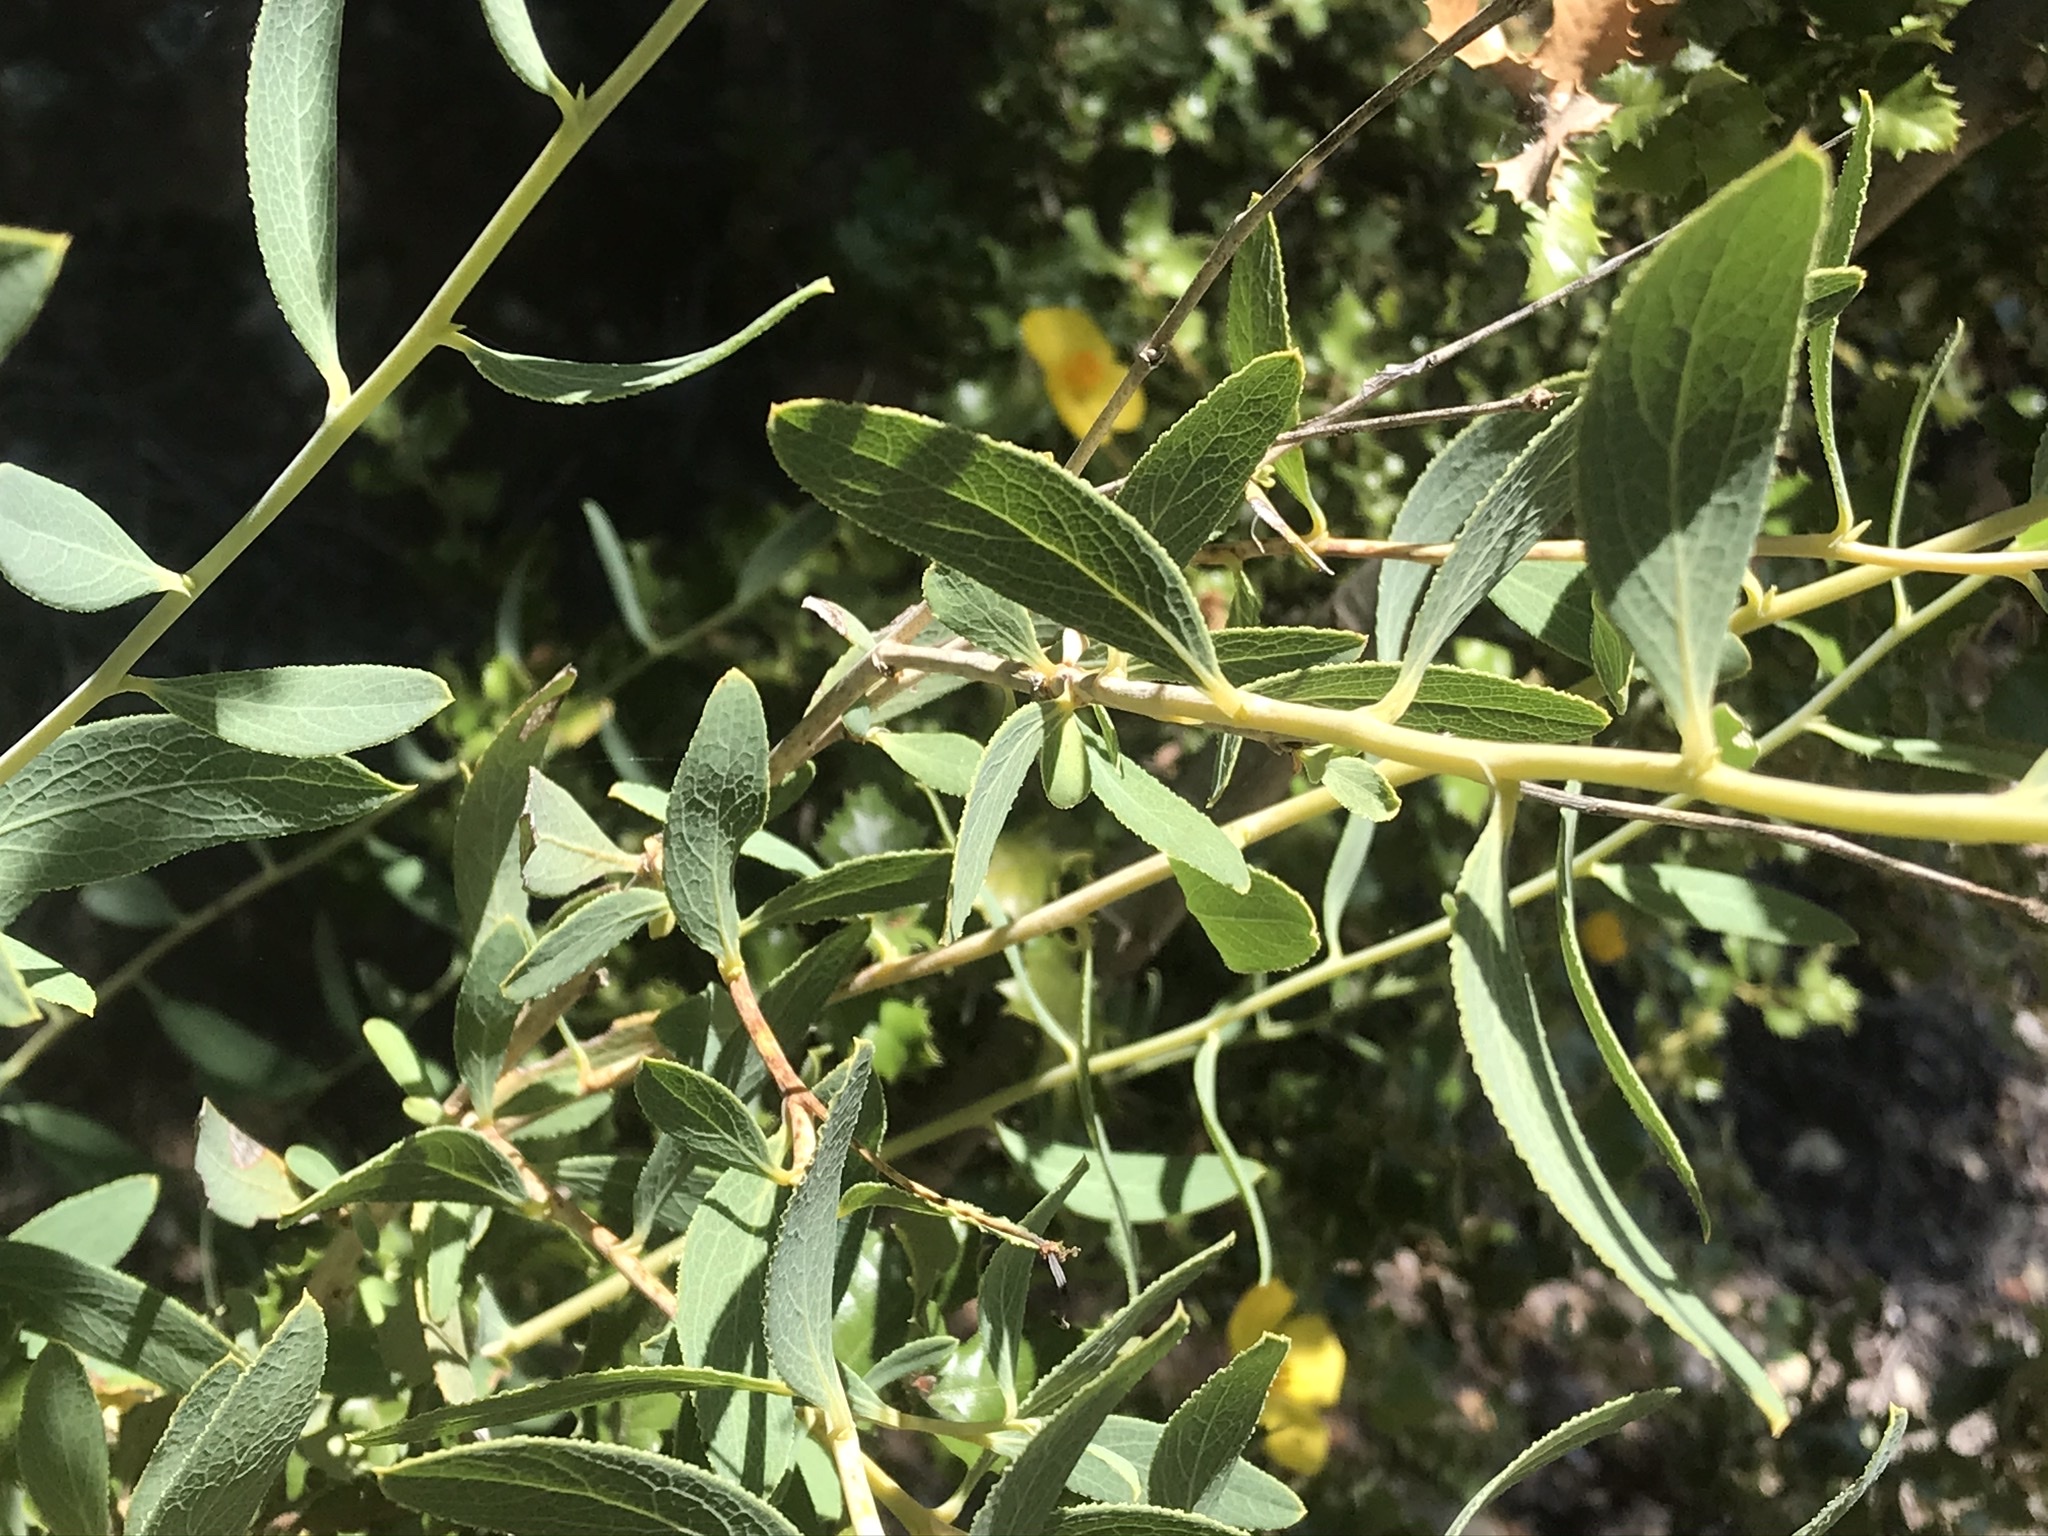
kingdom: Plantae
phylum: Tracheophyta
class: Magnoliopsida
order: Ranunculales
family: Papaveraceae
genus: Dendromecon
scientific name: Dendromecon rigida
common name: Tree poppy
